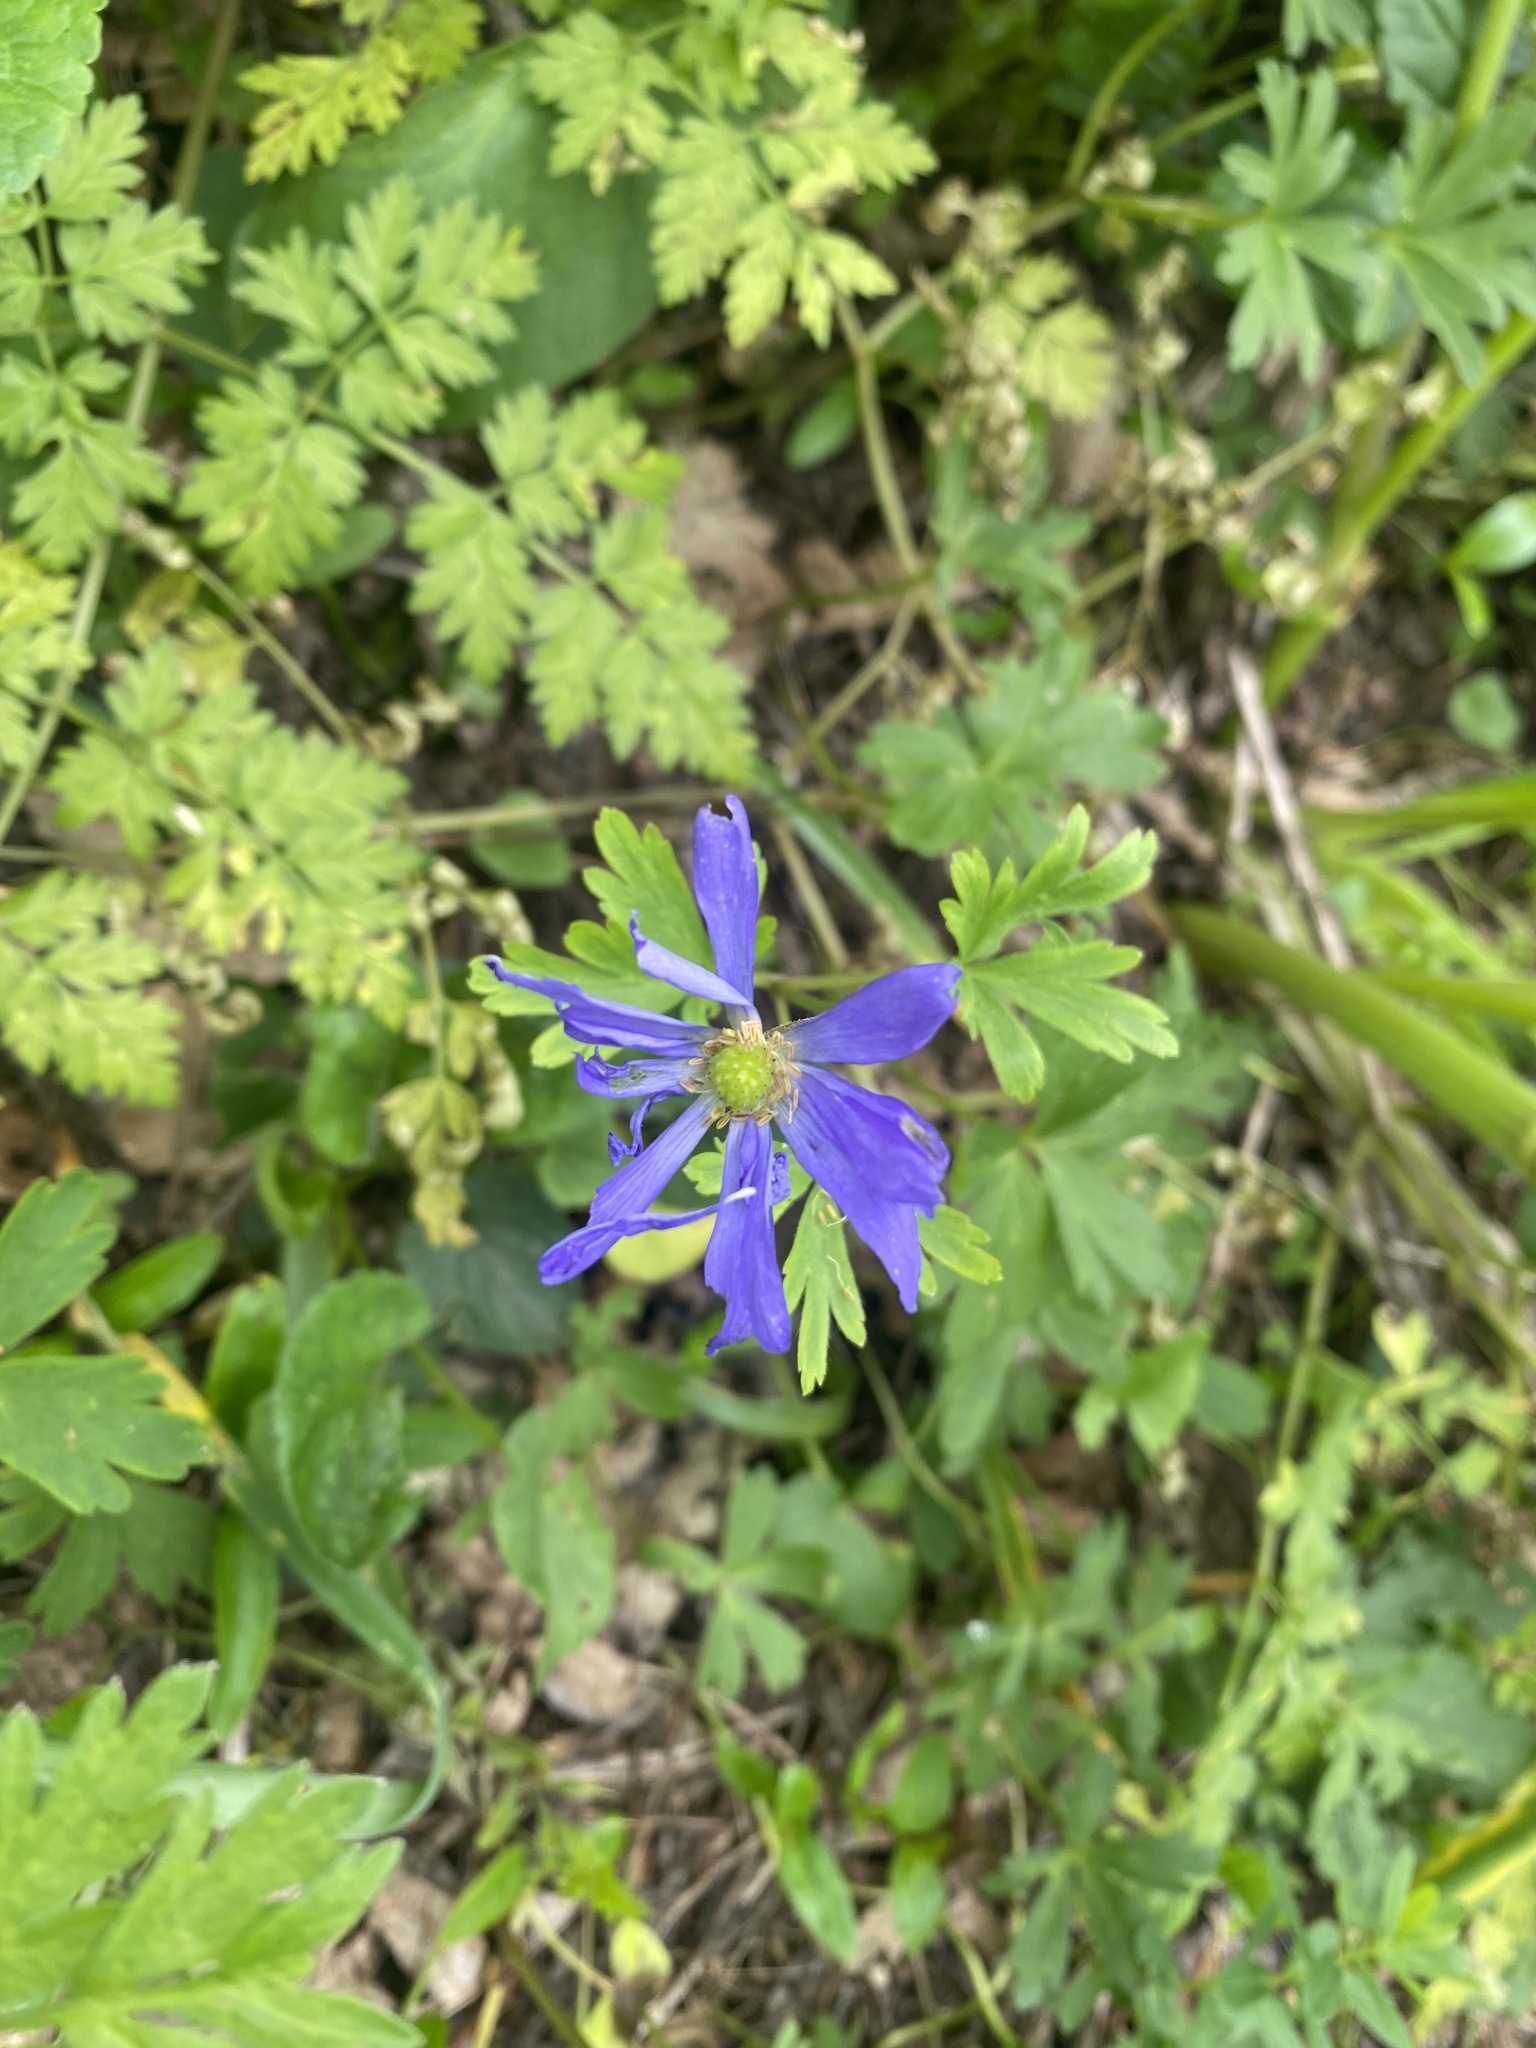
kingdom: Plantae
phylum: Tracheophyta
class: Magnoliopsida
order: Ranunculales
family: Ranunculaceae
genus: Anemone
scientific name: Anemone blanda
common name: Balkan anemone
